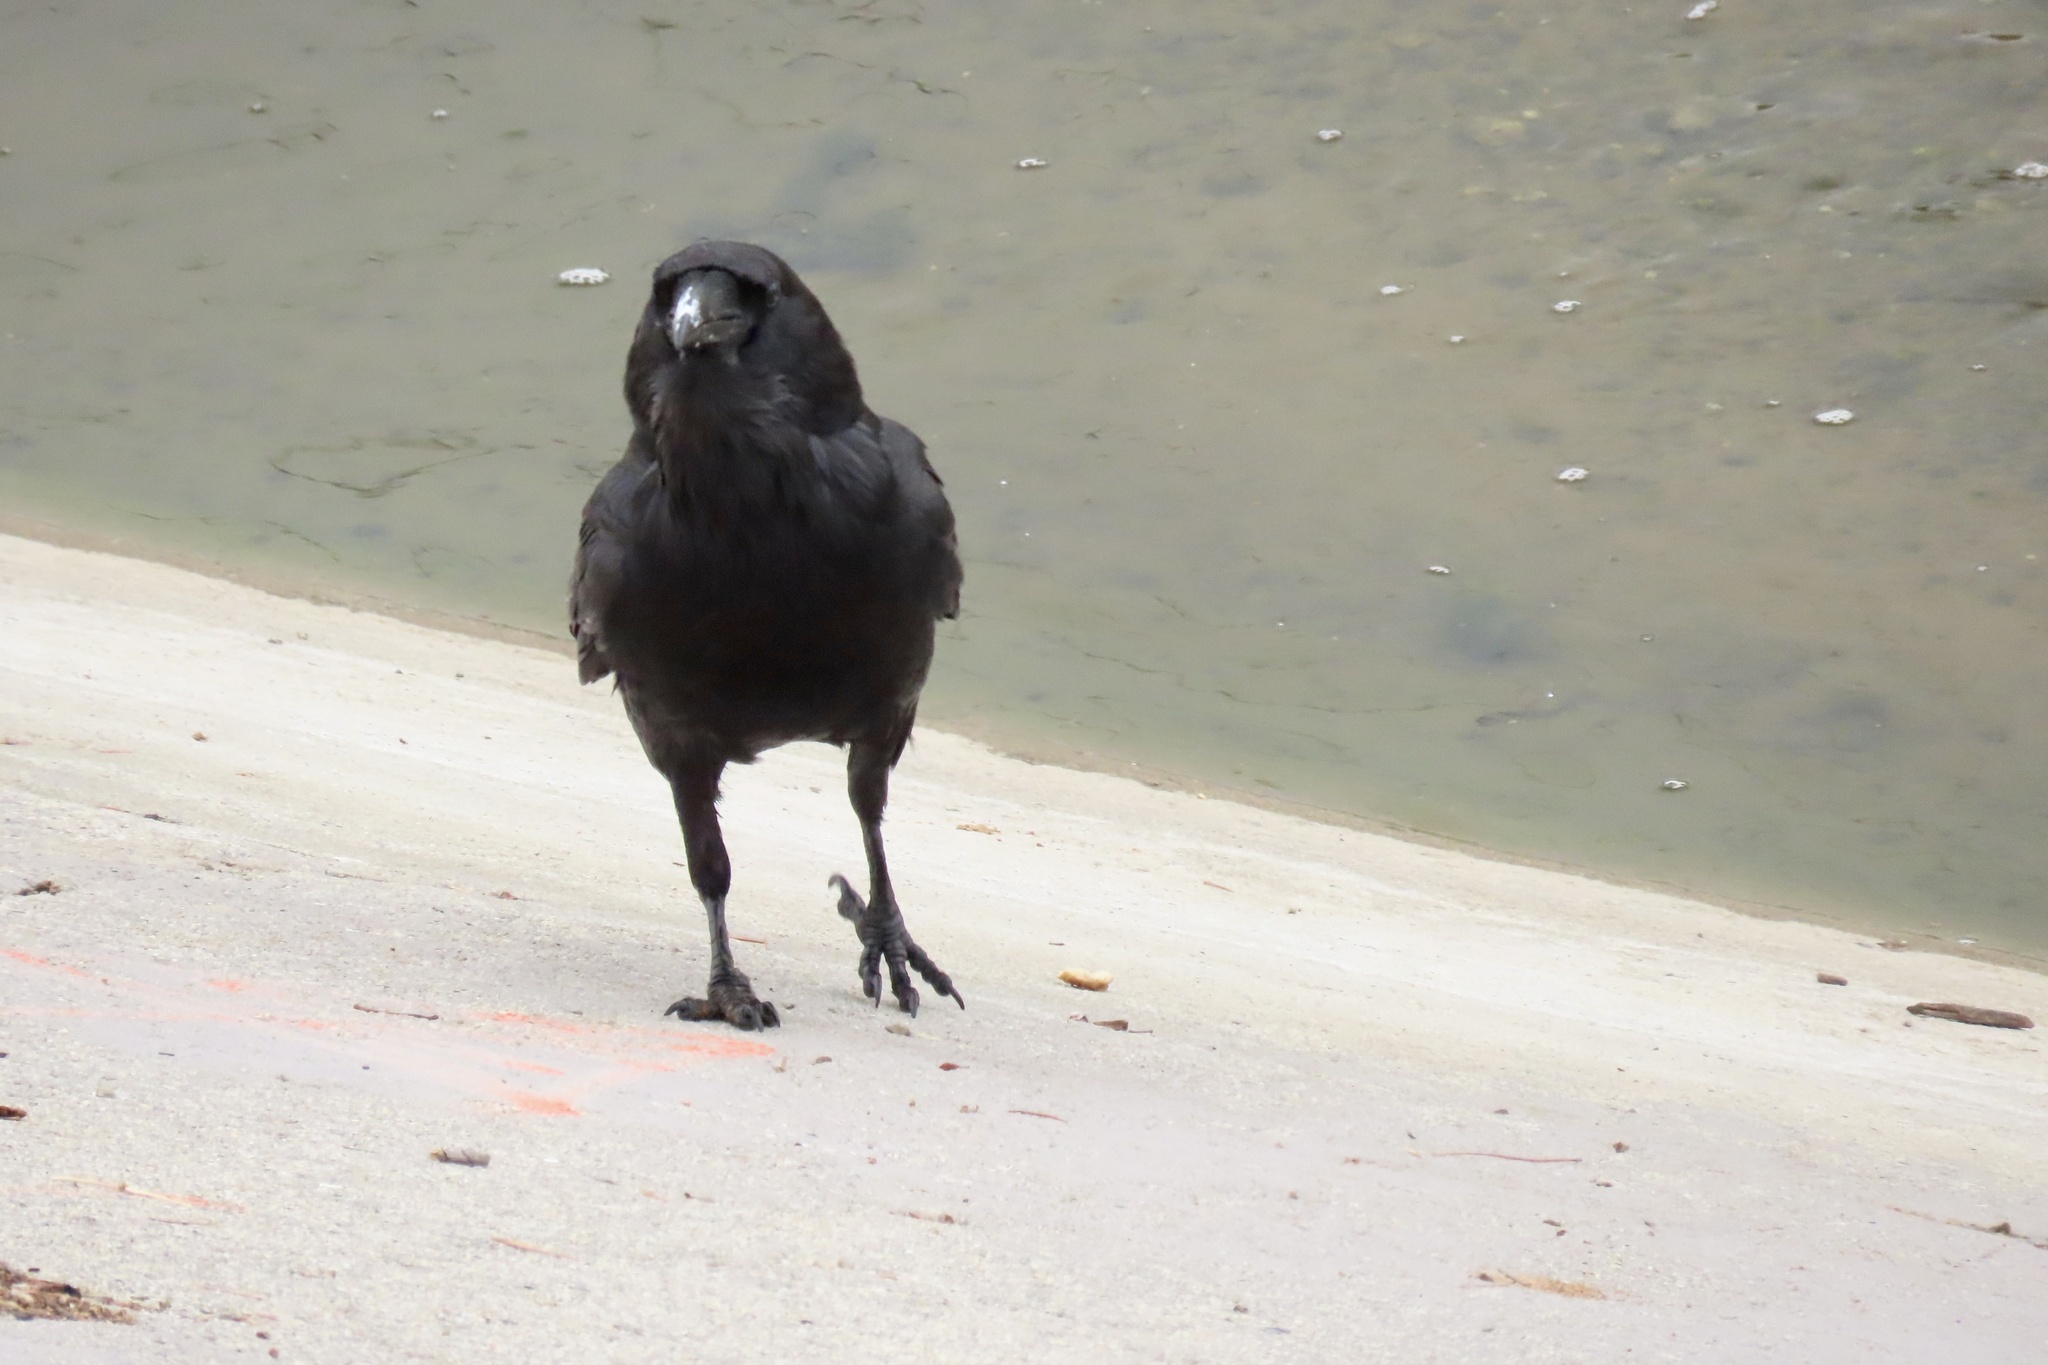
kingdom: Animalia
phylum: Chordata
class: Aves
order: Passeriformes
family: Corvidae
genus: Corvus
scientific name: Corvus corax
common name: Common raven
